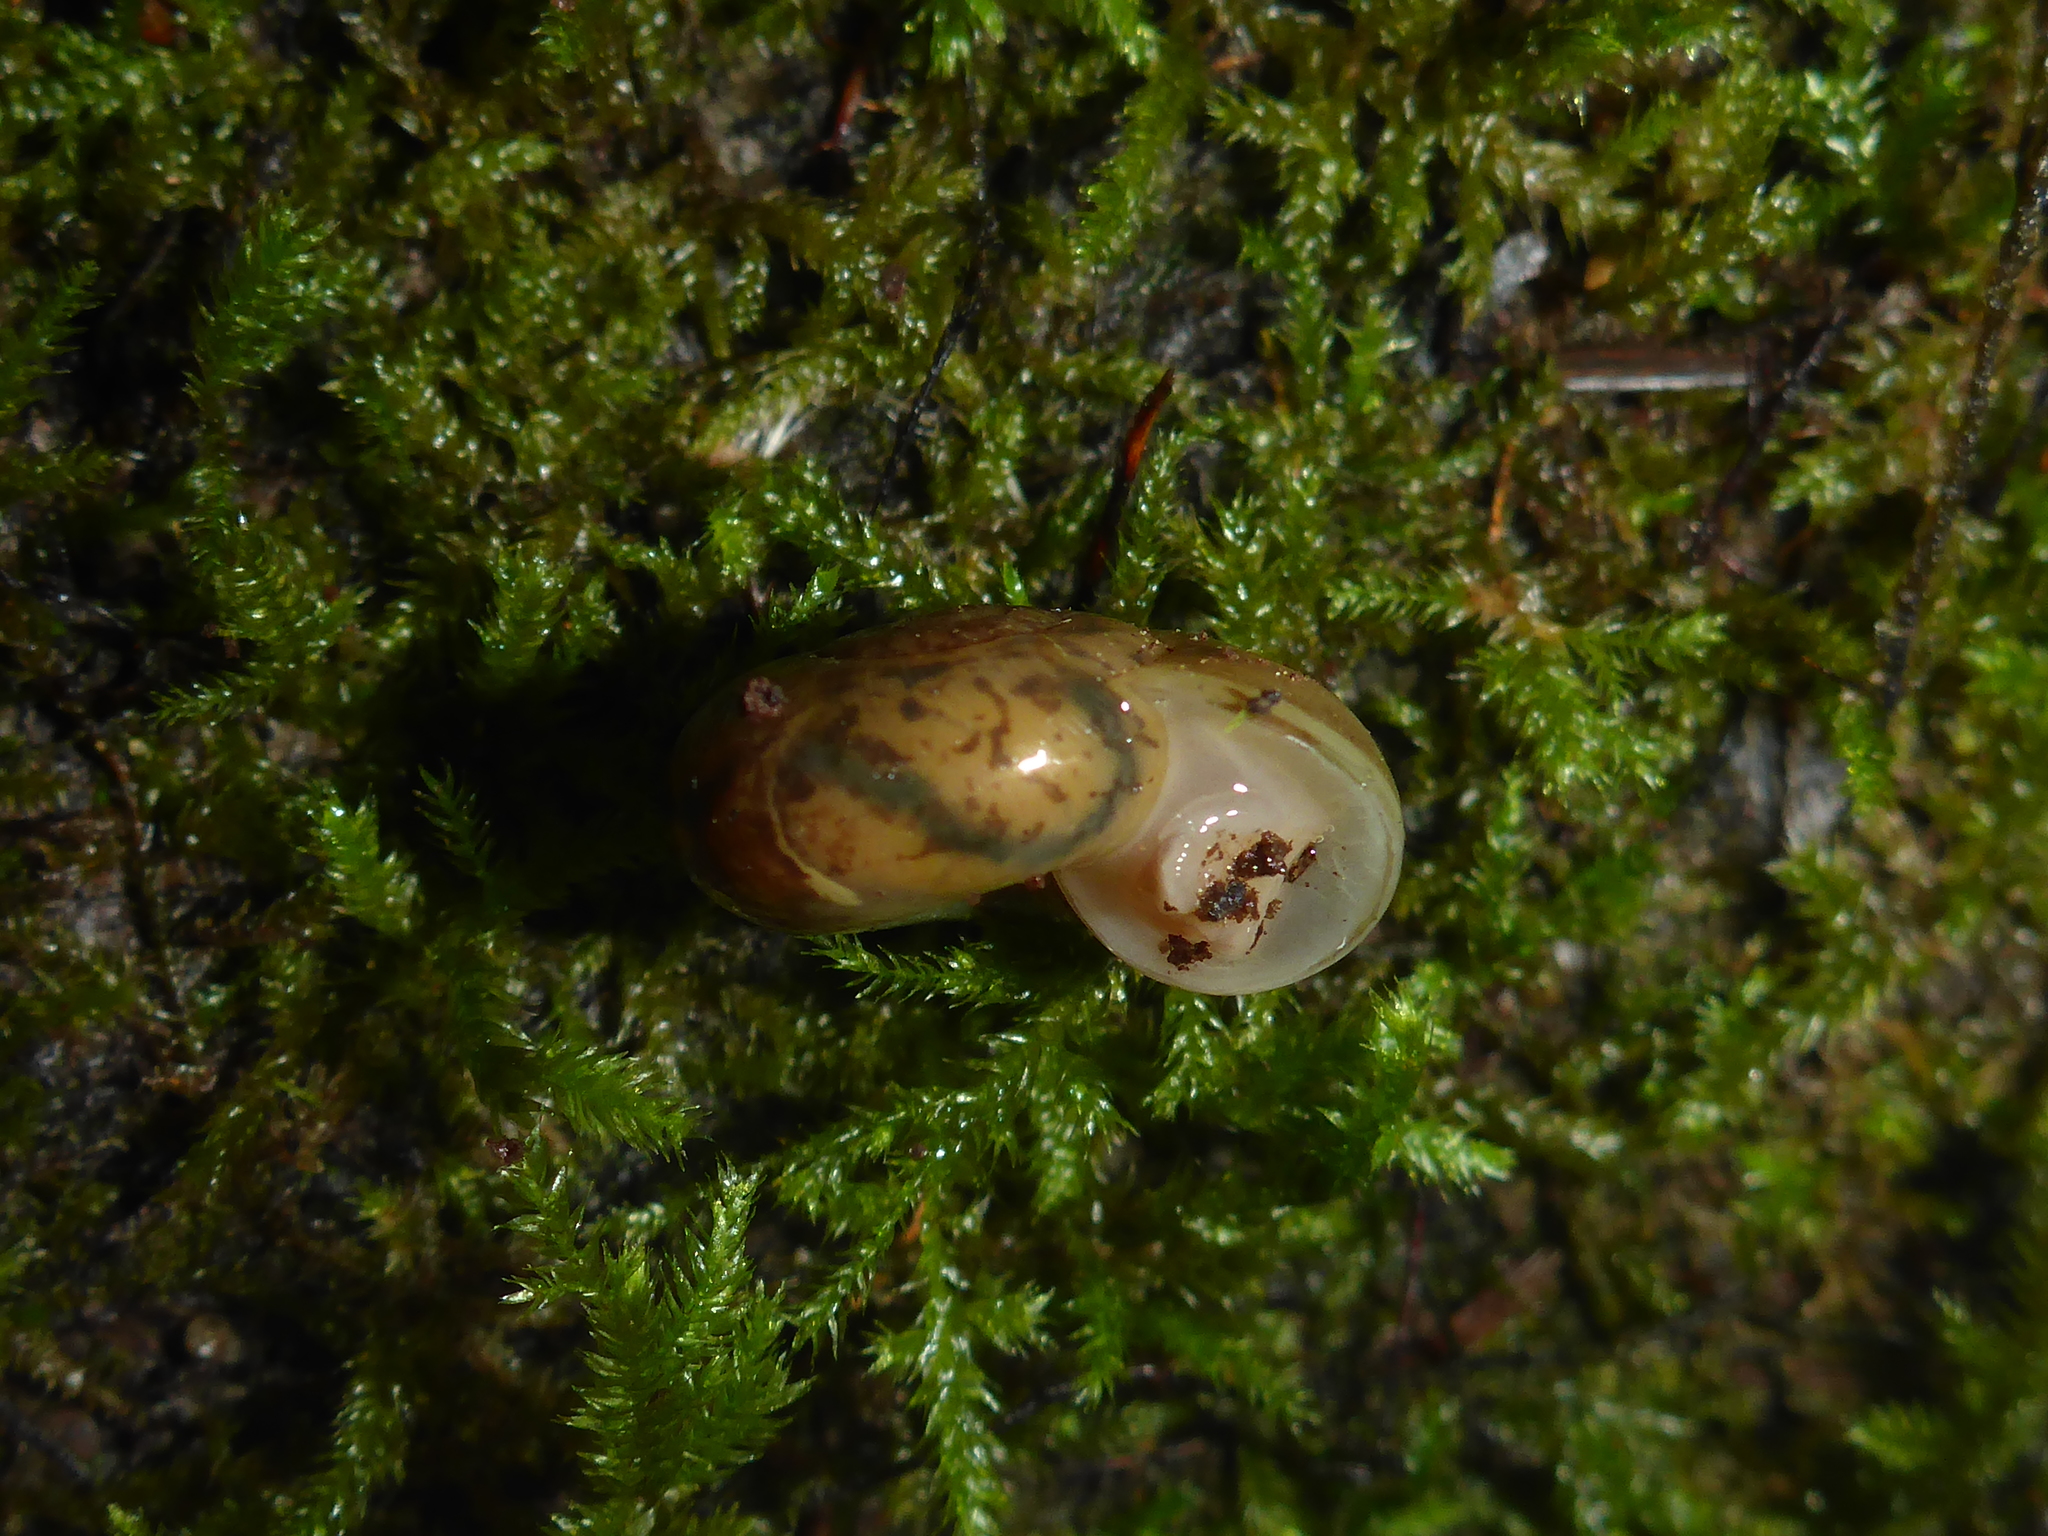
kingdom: Animalia
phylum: Mollusca
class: Gastropoda
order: Stylommatophora
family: Haplotrematidae
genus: Haplotrema
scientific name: Haplotrema minimum
